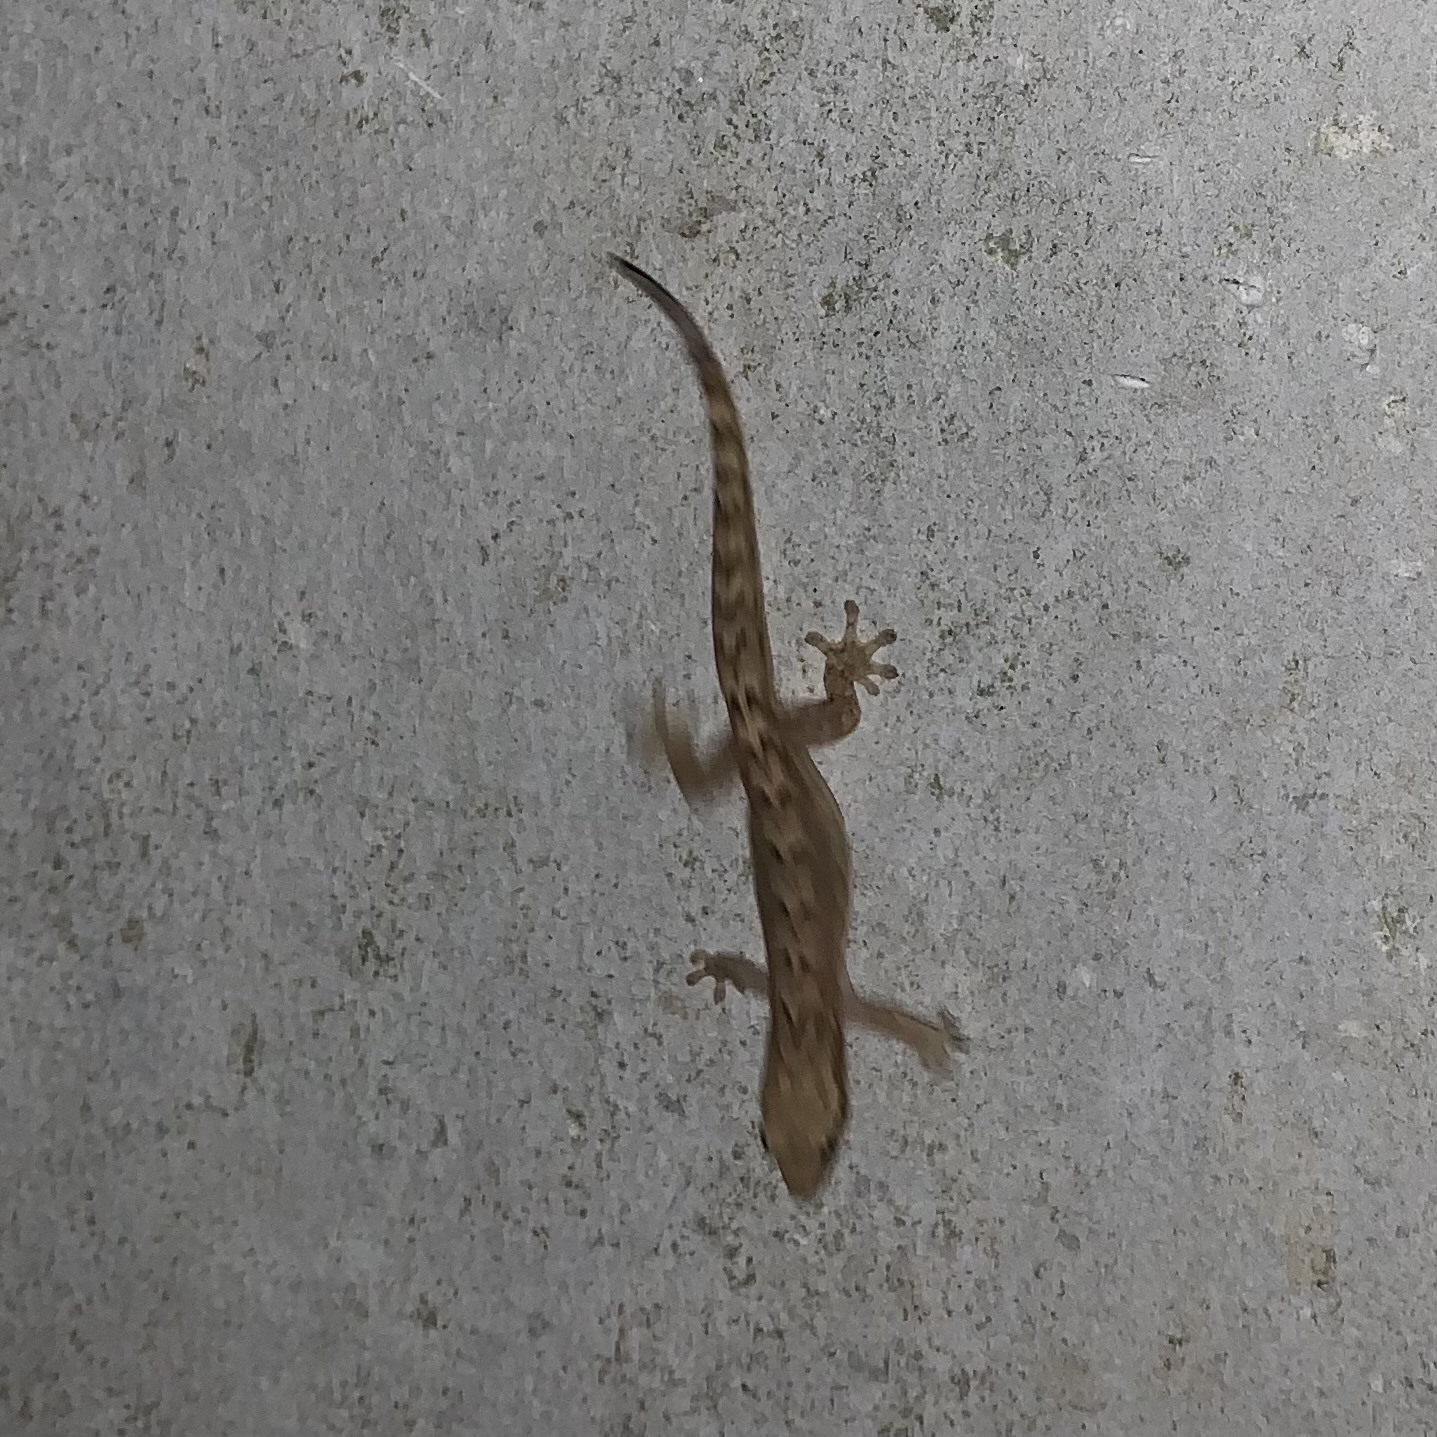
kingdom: Animalia
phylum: Chordata
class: Squamata
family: Gekkonidae
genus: Lepidodactylus
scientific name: Lepidodactylus lugubris
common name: Mourning gecko
